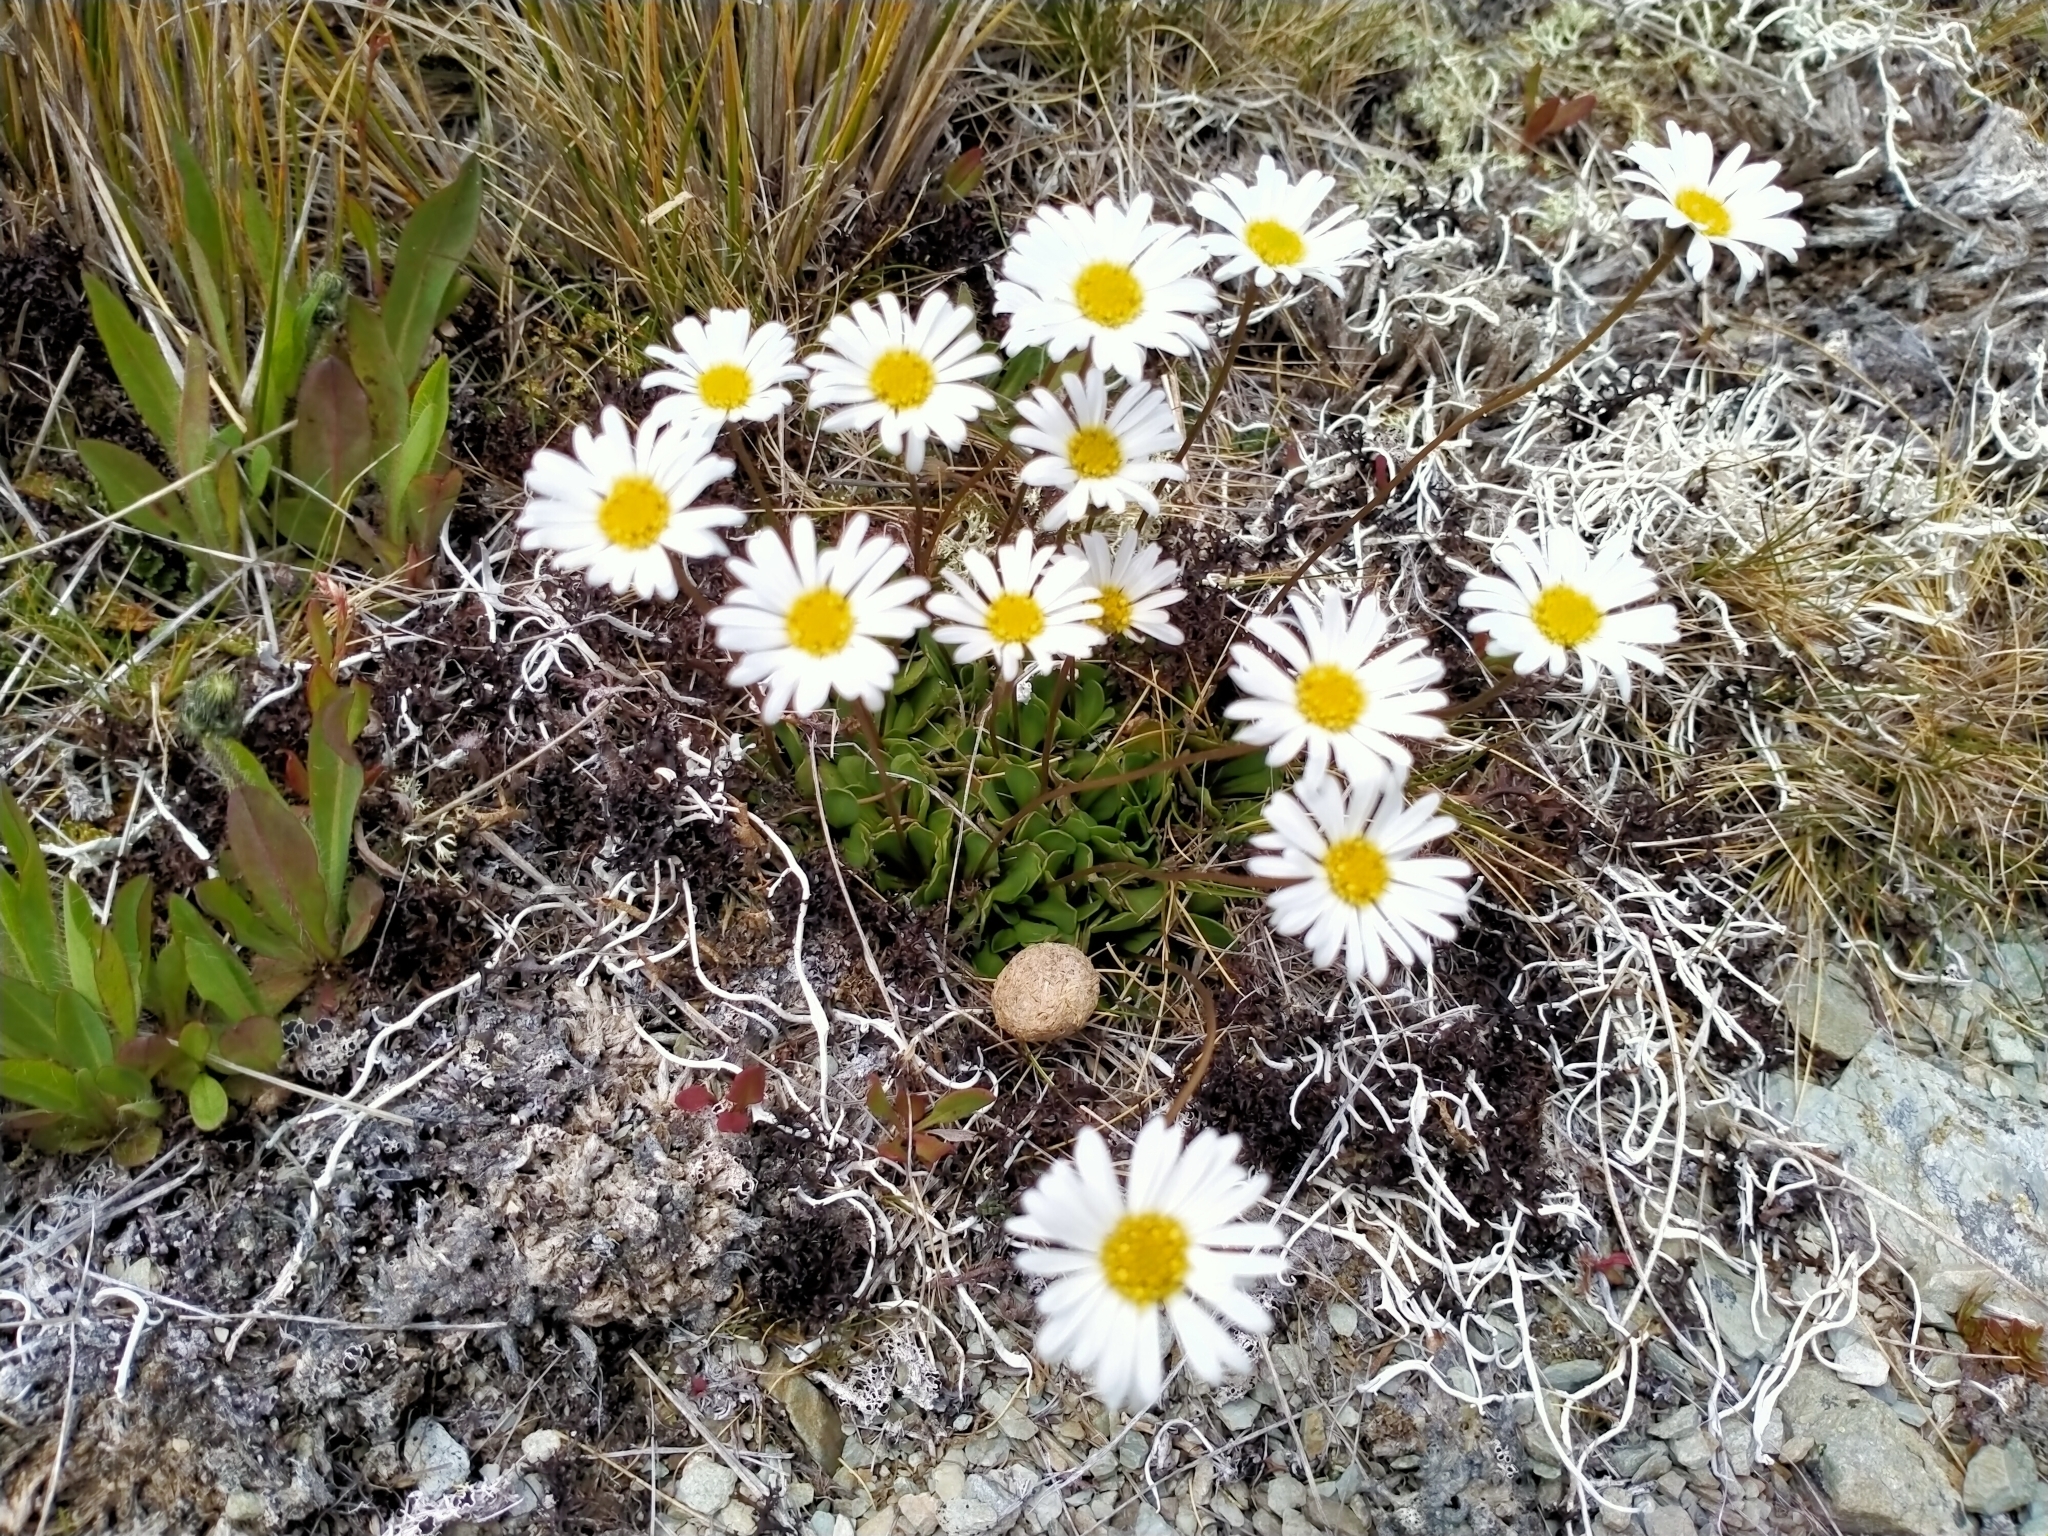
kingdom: Plantae
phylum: Tracheophyta
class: Magnoliopsida
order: Asterales
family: Asteraceae
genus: Brachyscome
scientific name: Brachyscome longiscapa
